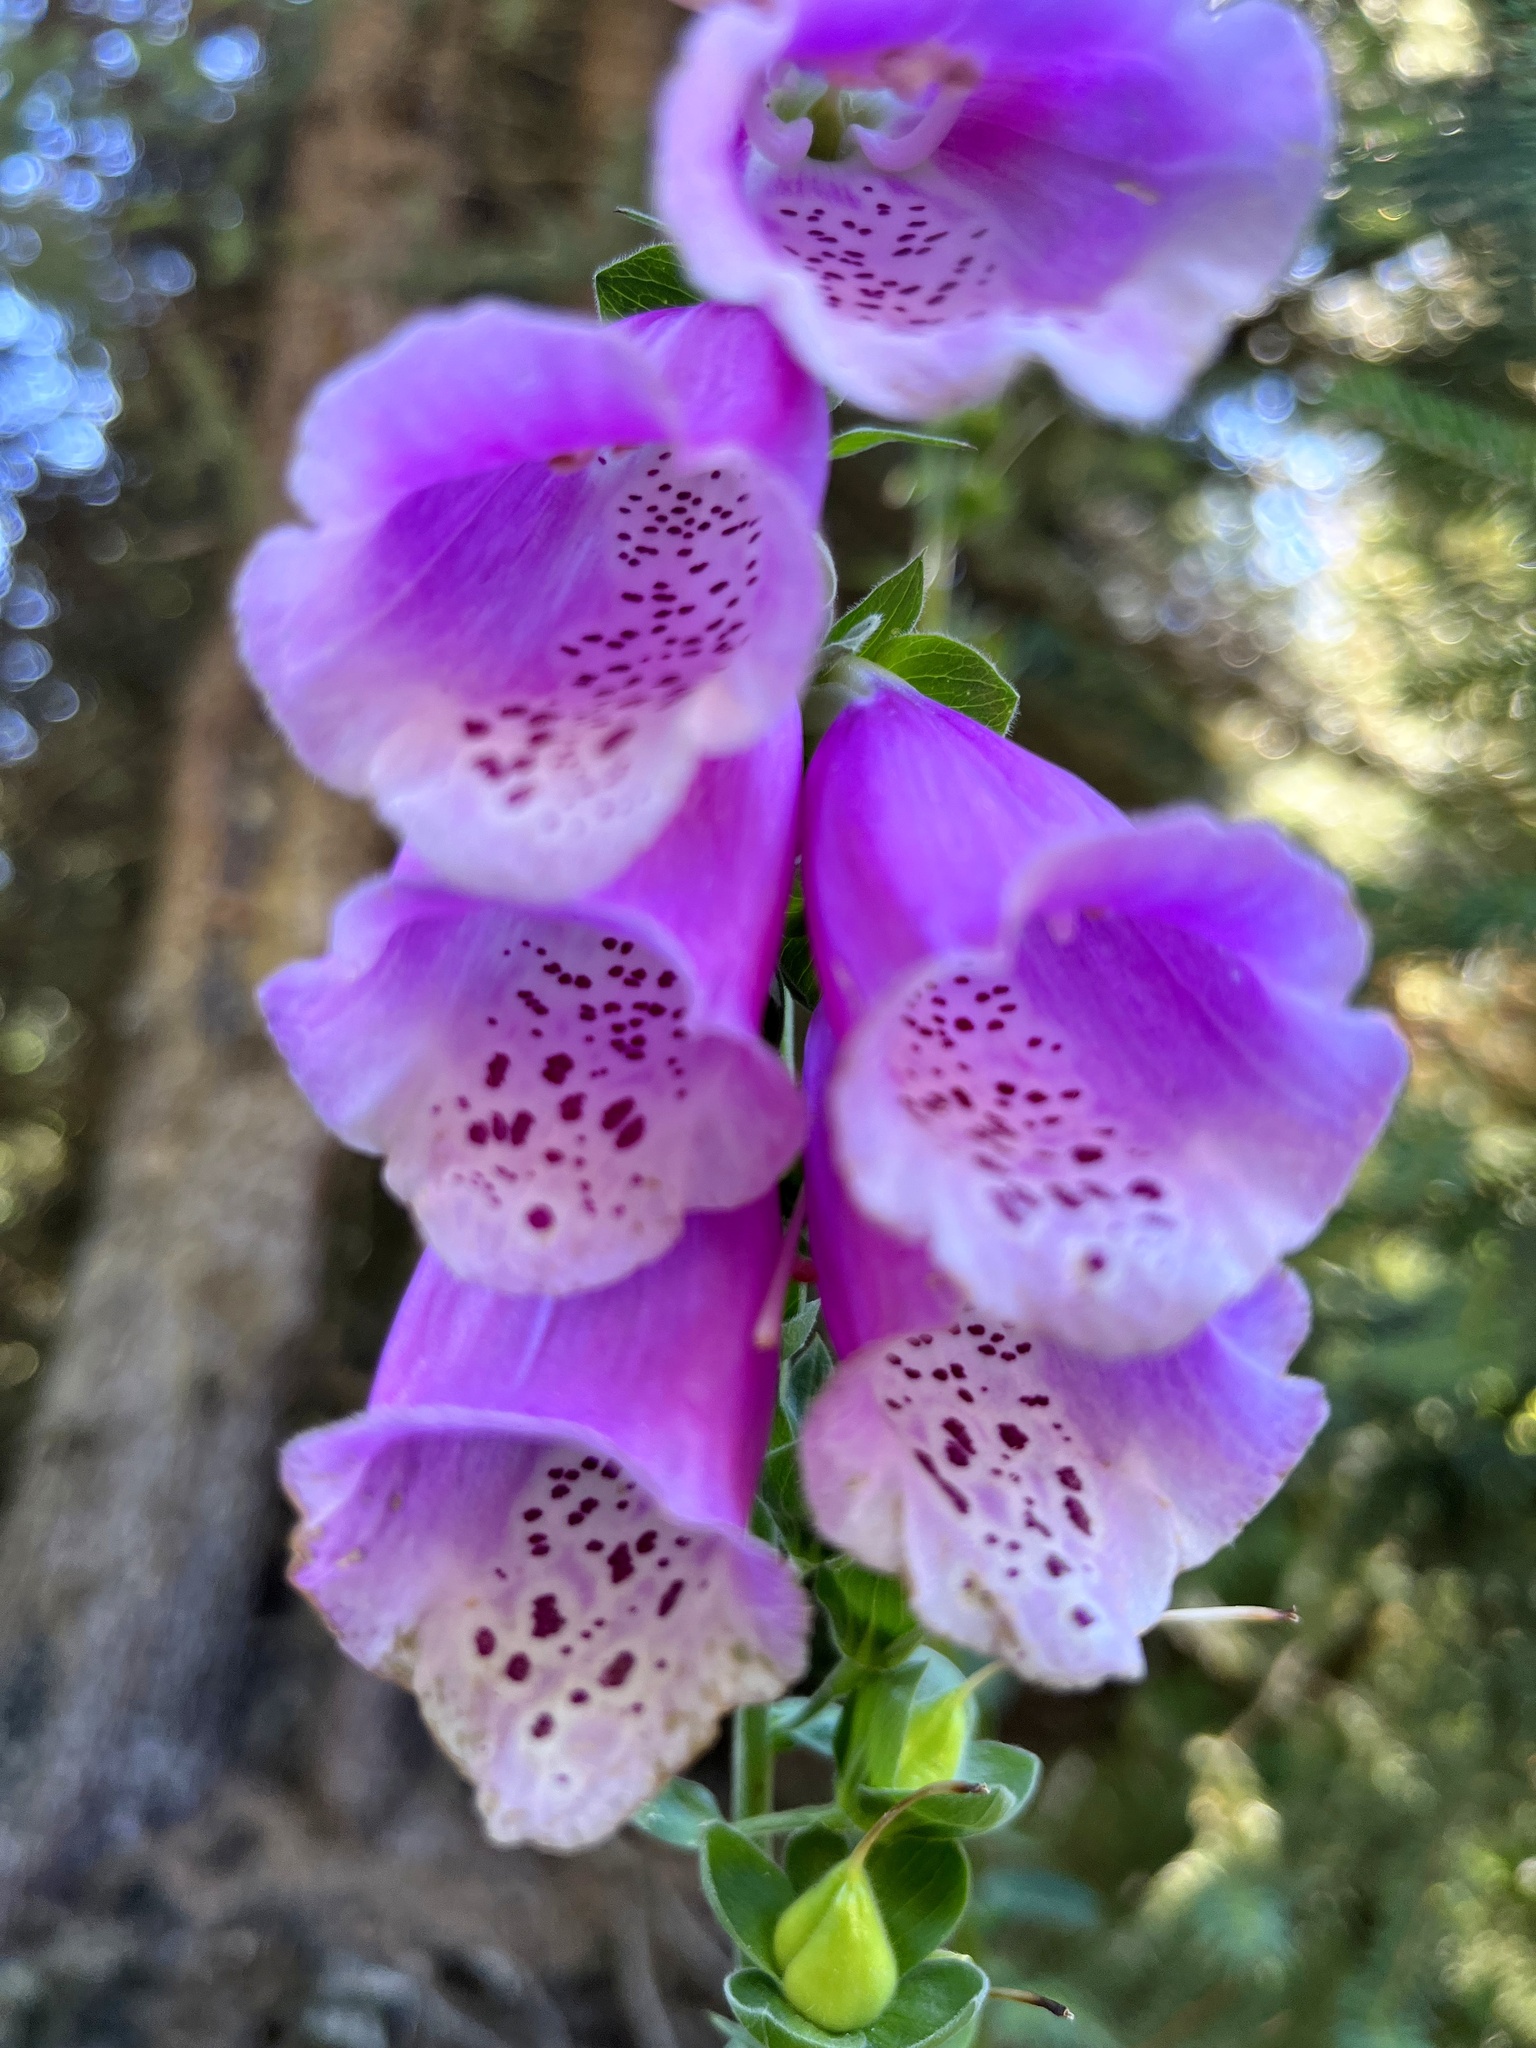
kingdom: Plantae
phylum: Tracheophyta
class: Magnoliopsida
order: Lamiales
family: Plantaginaceae
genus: Digitalis
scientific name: Digitalis purpurea
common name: Foxglove
